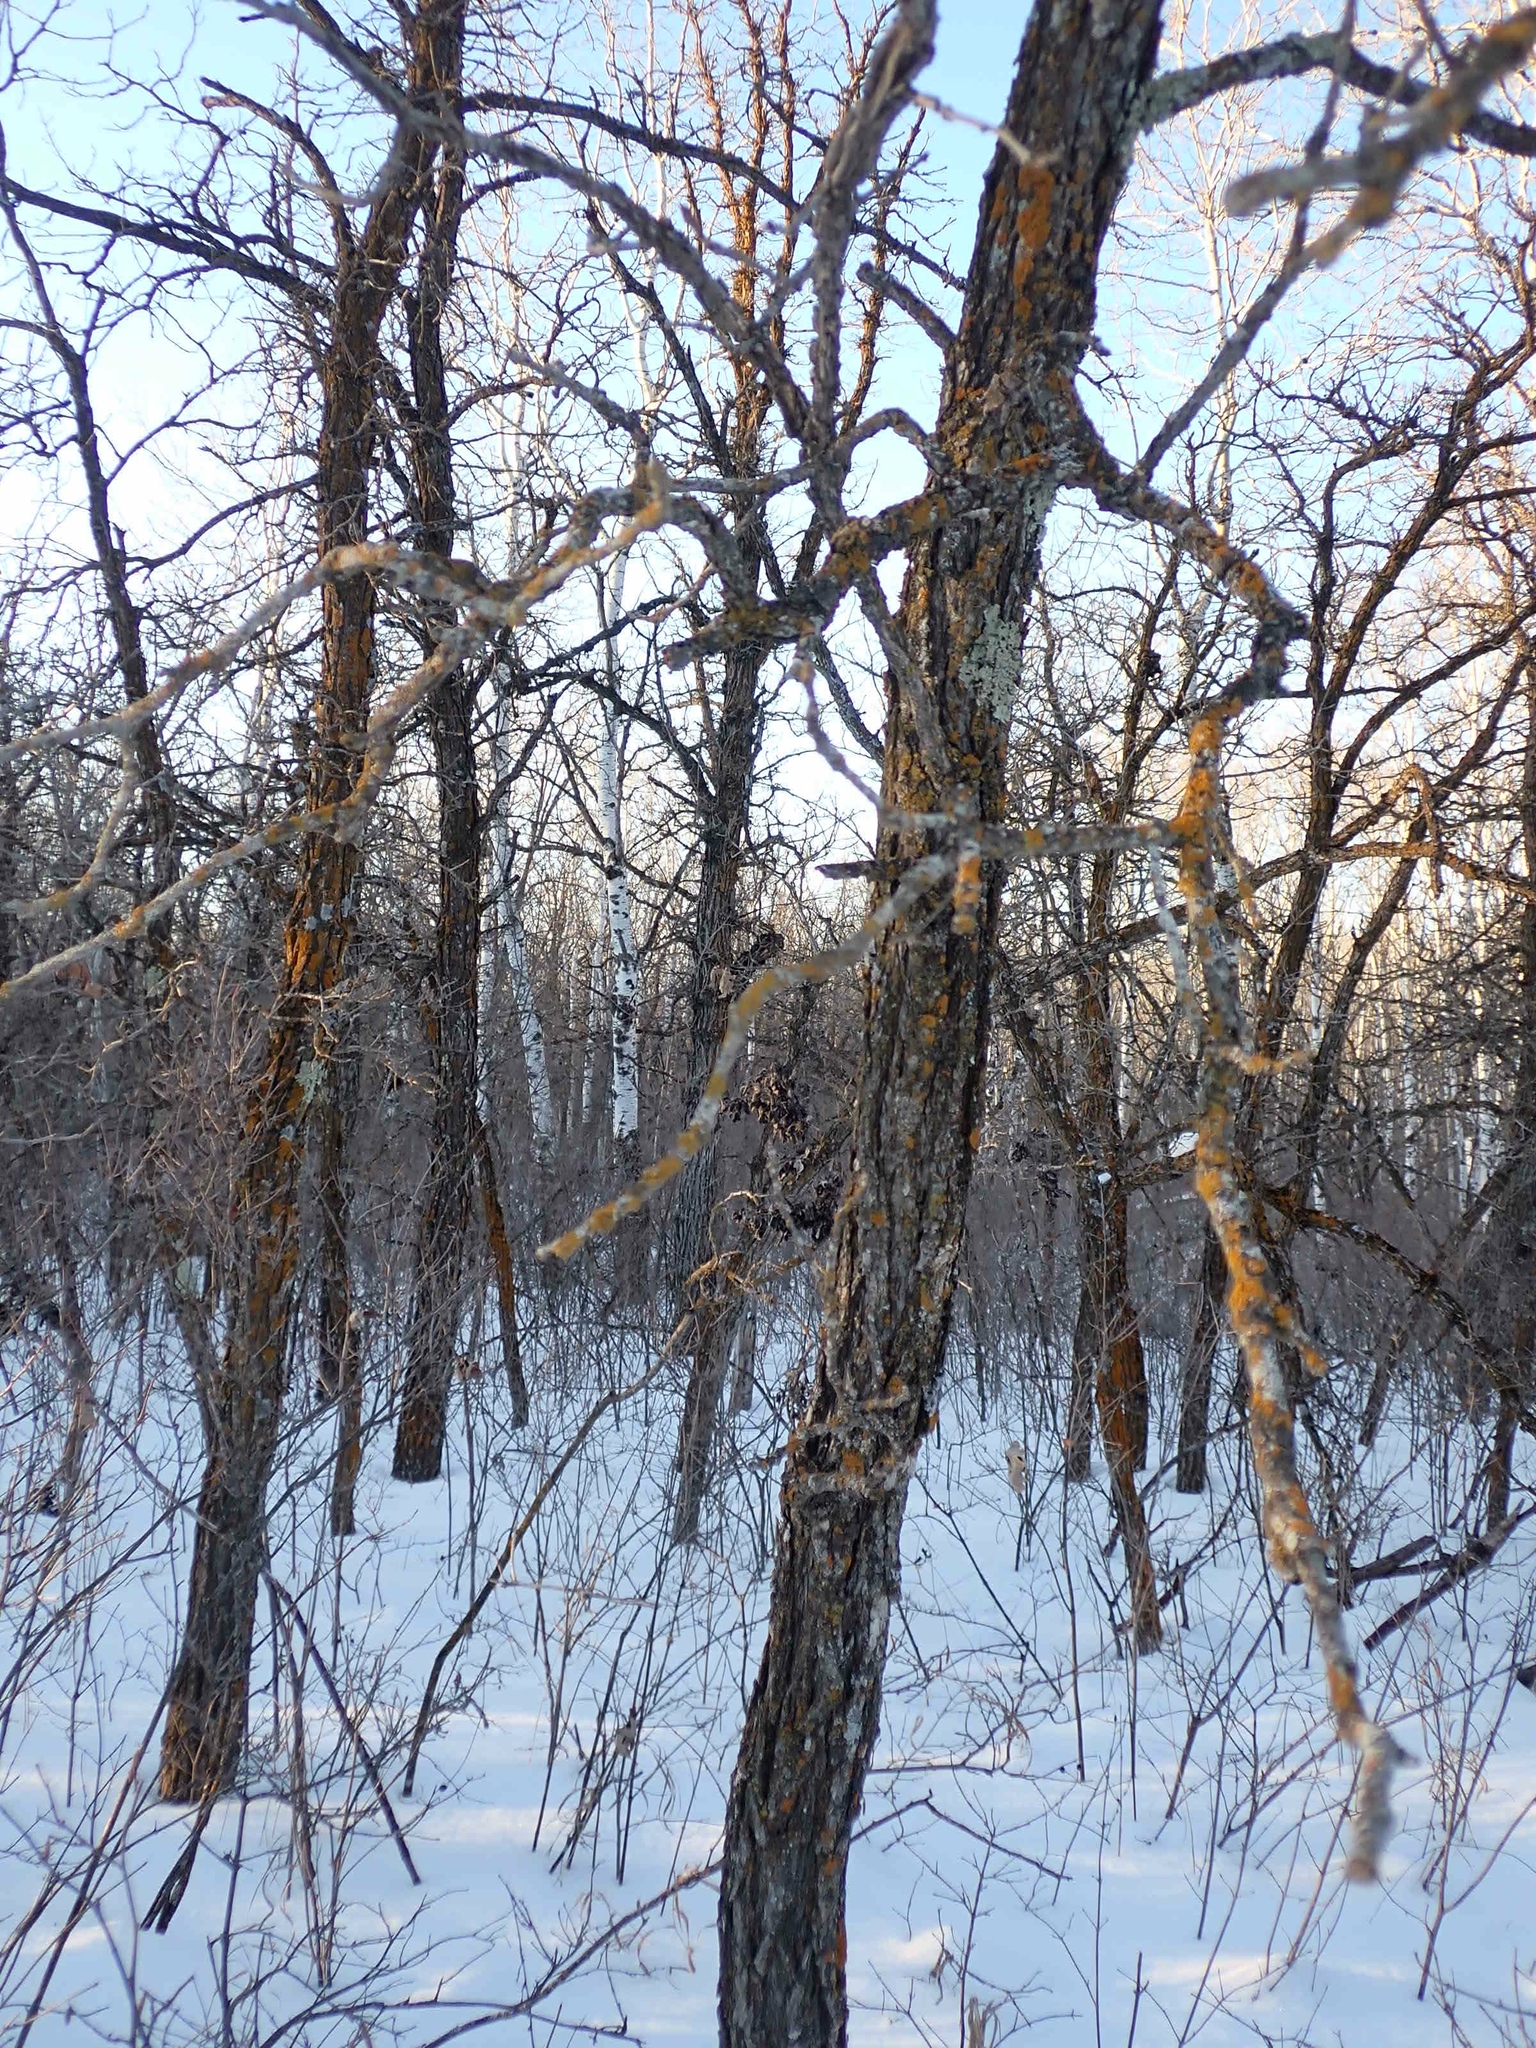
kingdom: Plantae
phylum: Tracheophyta
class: Magnoliopsida
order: Fagales
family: Fagaceae
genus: Quercus
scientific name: Quercus macrocarpa
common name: Bur oak
